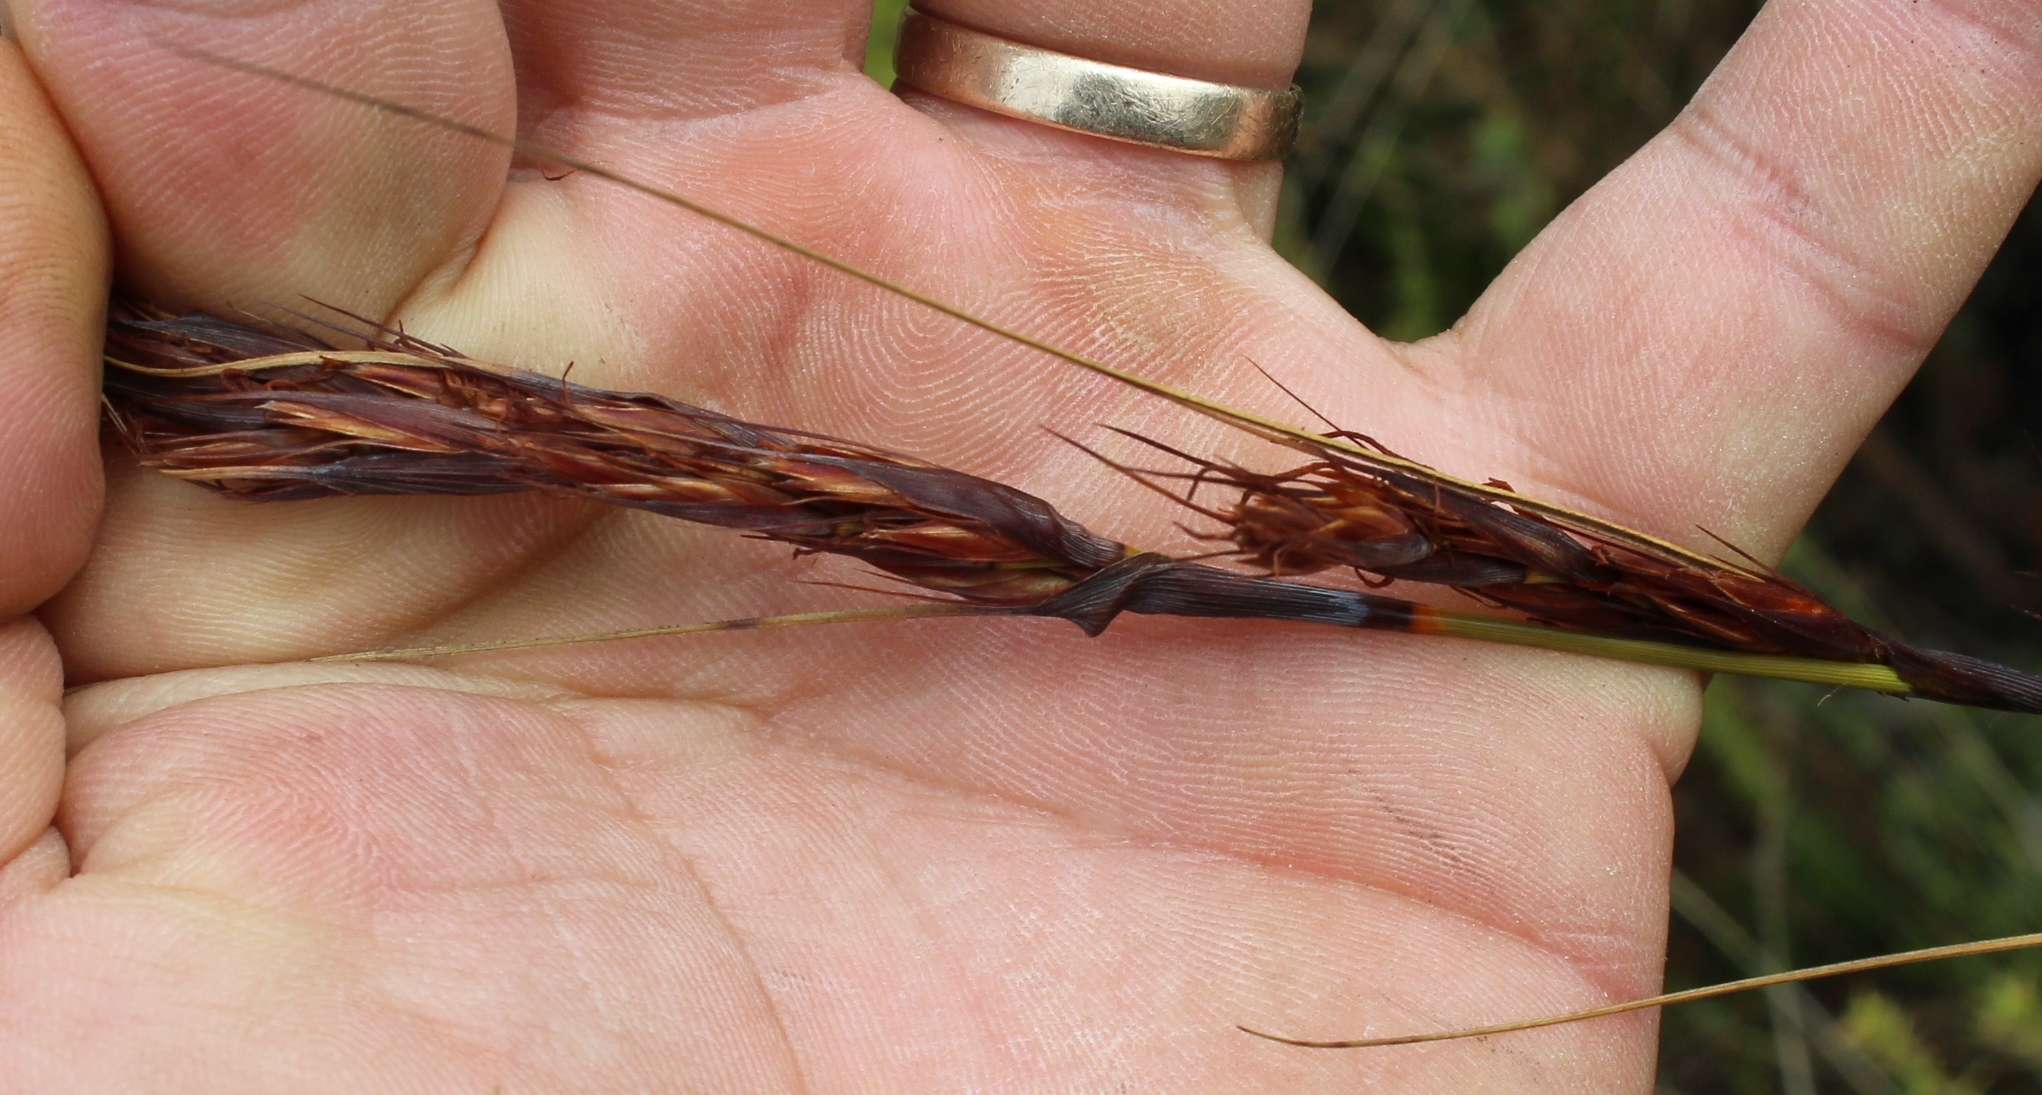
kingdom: Plantae
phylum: Tracheophyta
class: Liliopsida
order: Poales
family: Cyperaceae
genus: Tetraria
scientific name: Tetraria ustulata
